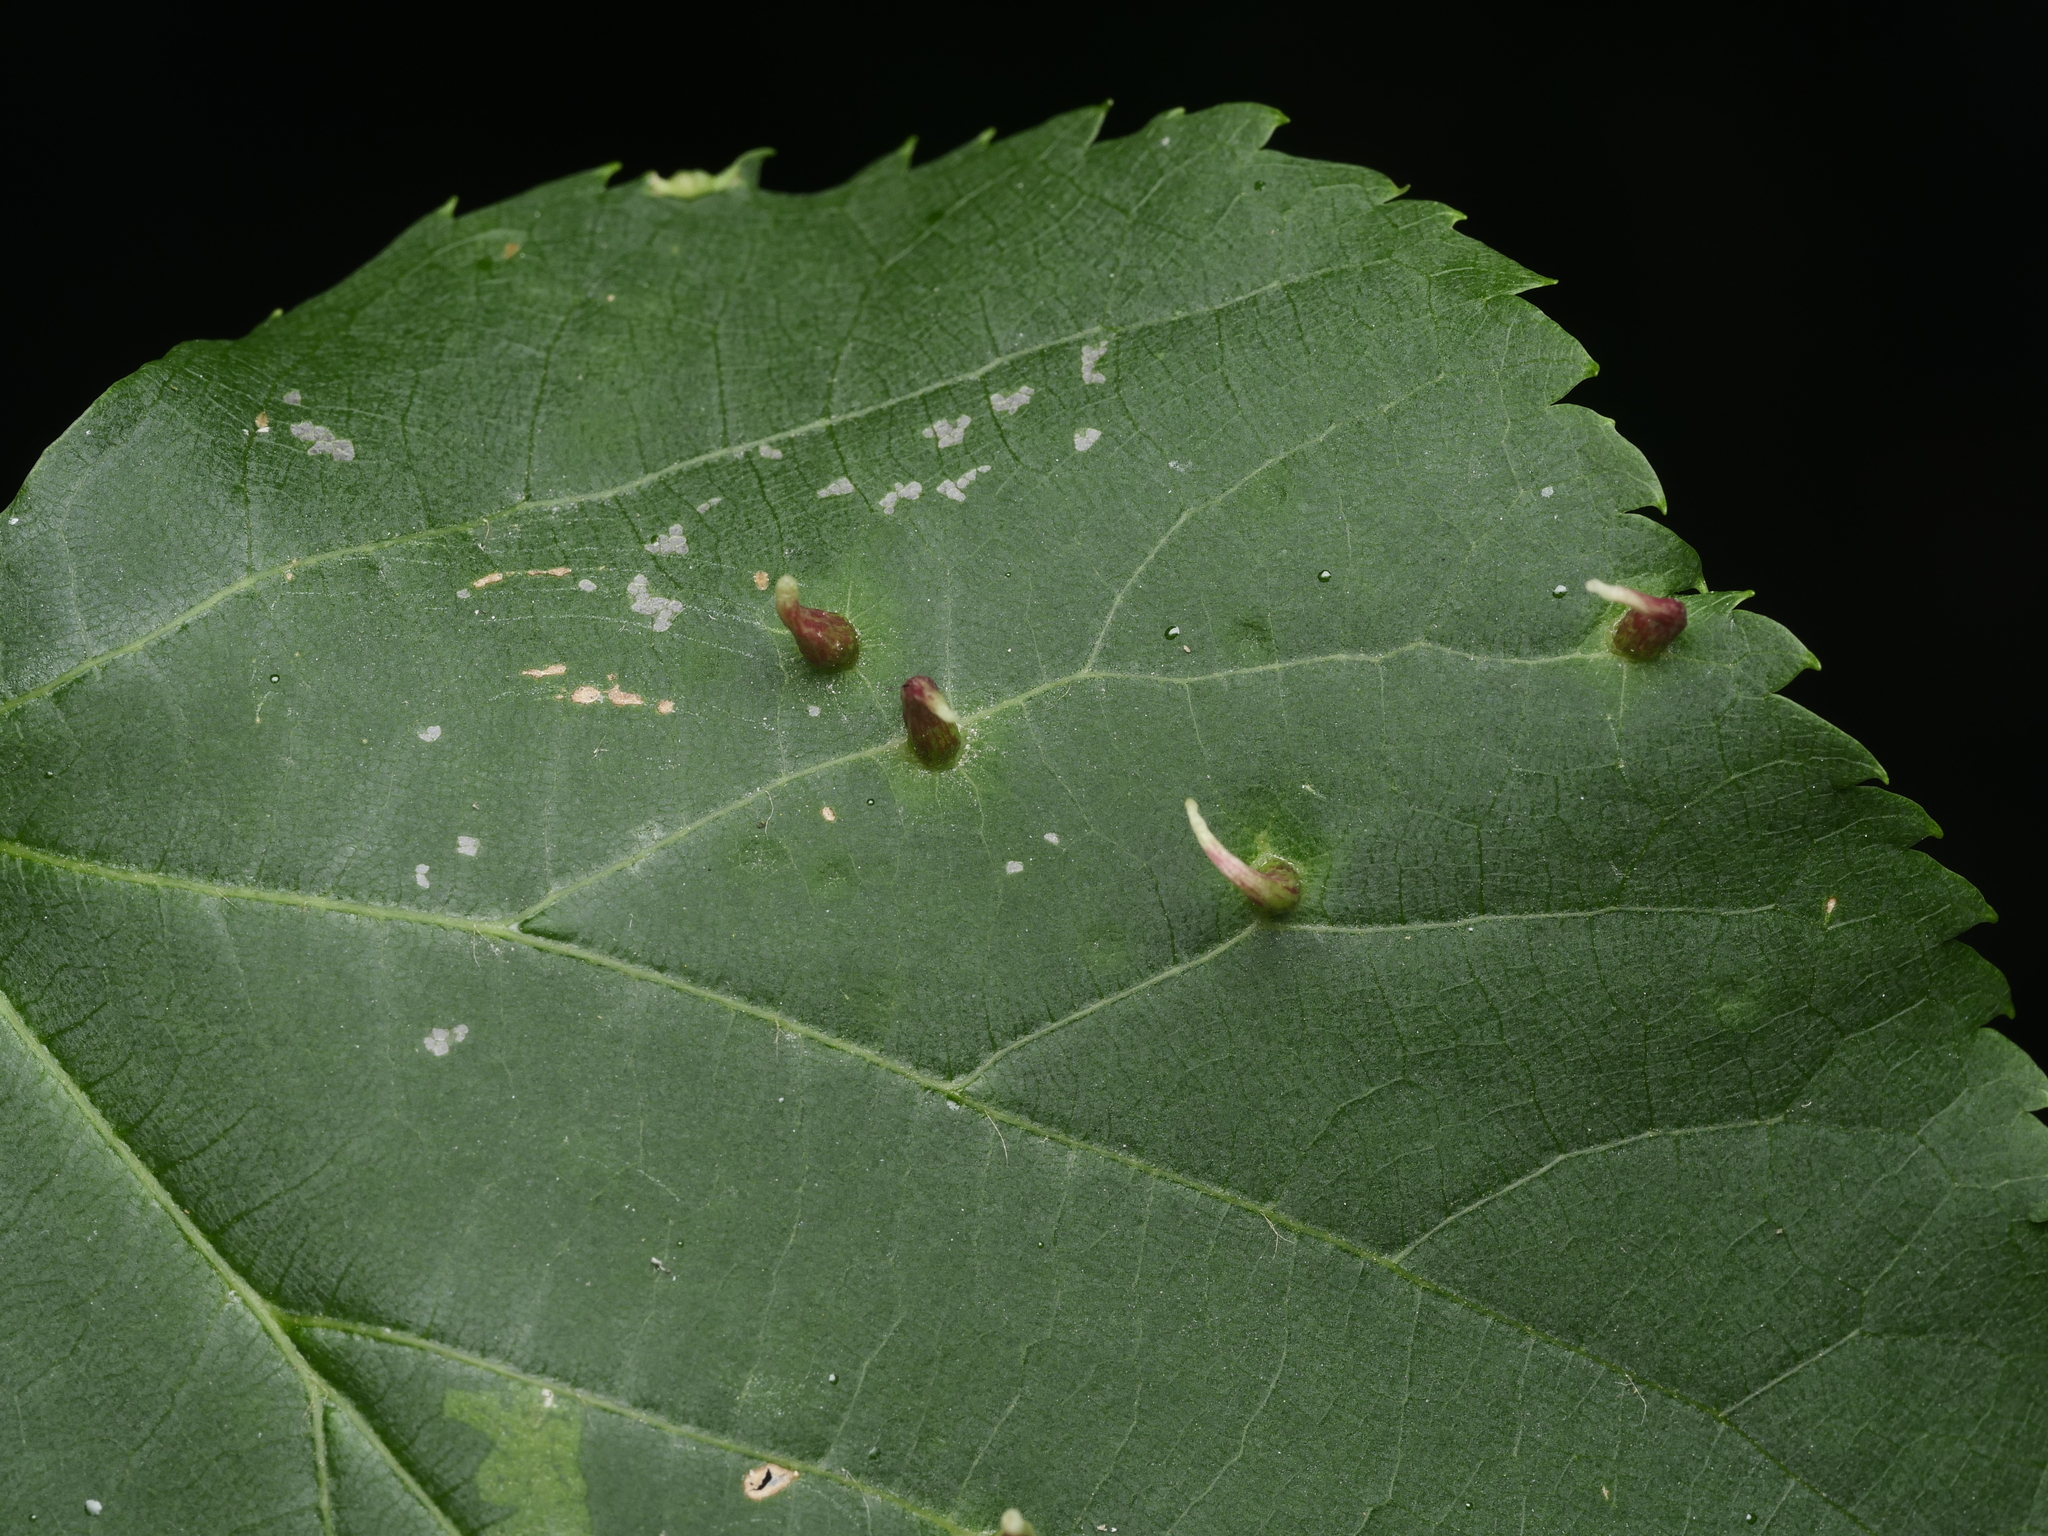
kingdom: Animalia
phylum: Arthropoda
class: Arachnida
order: Trombidiformes
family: Eriophyidae
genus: Eriophyes
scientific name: Eriophyes tiliae
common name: Red nail gall mite
